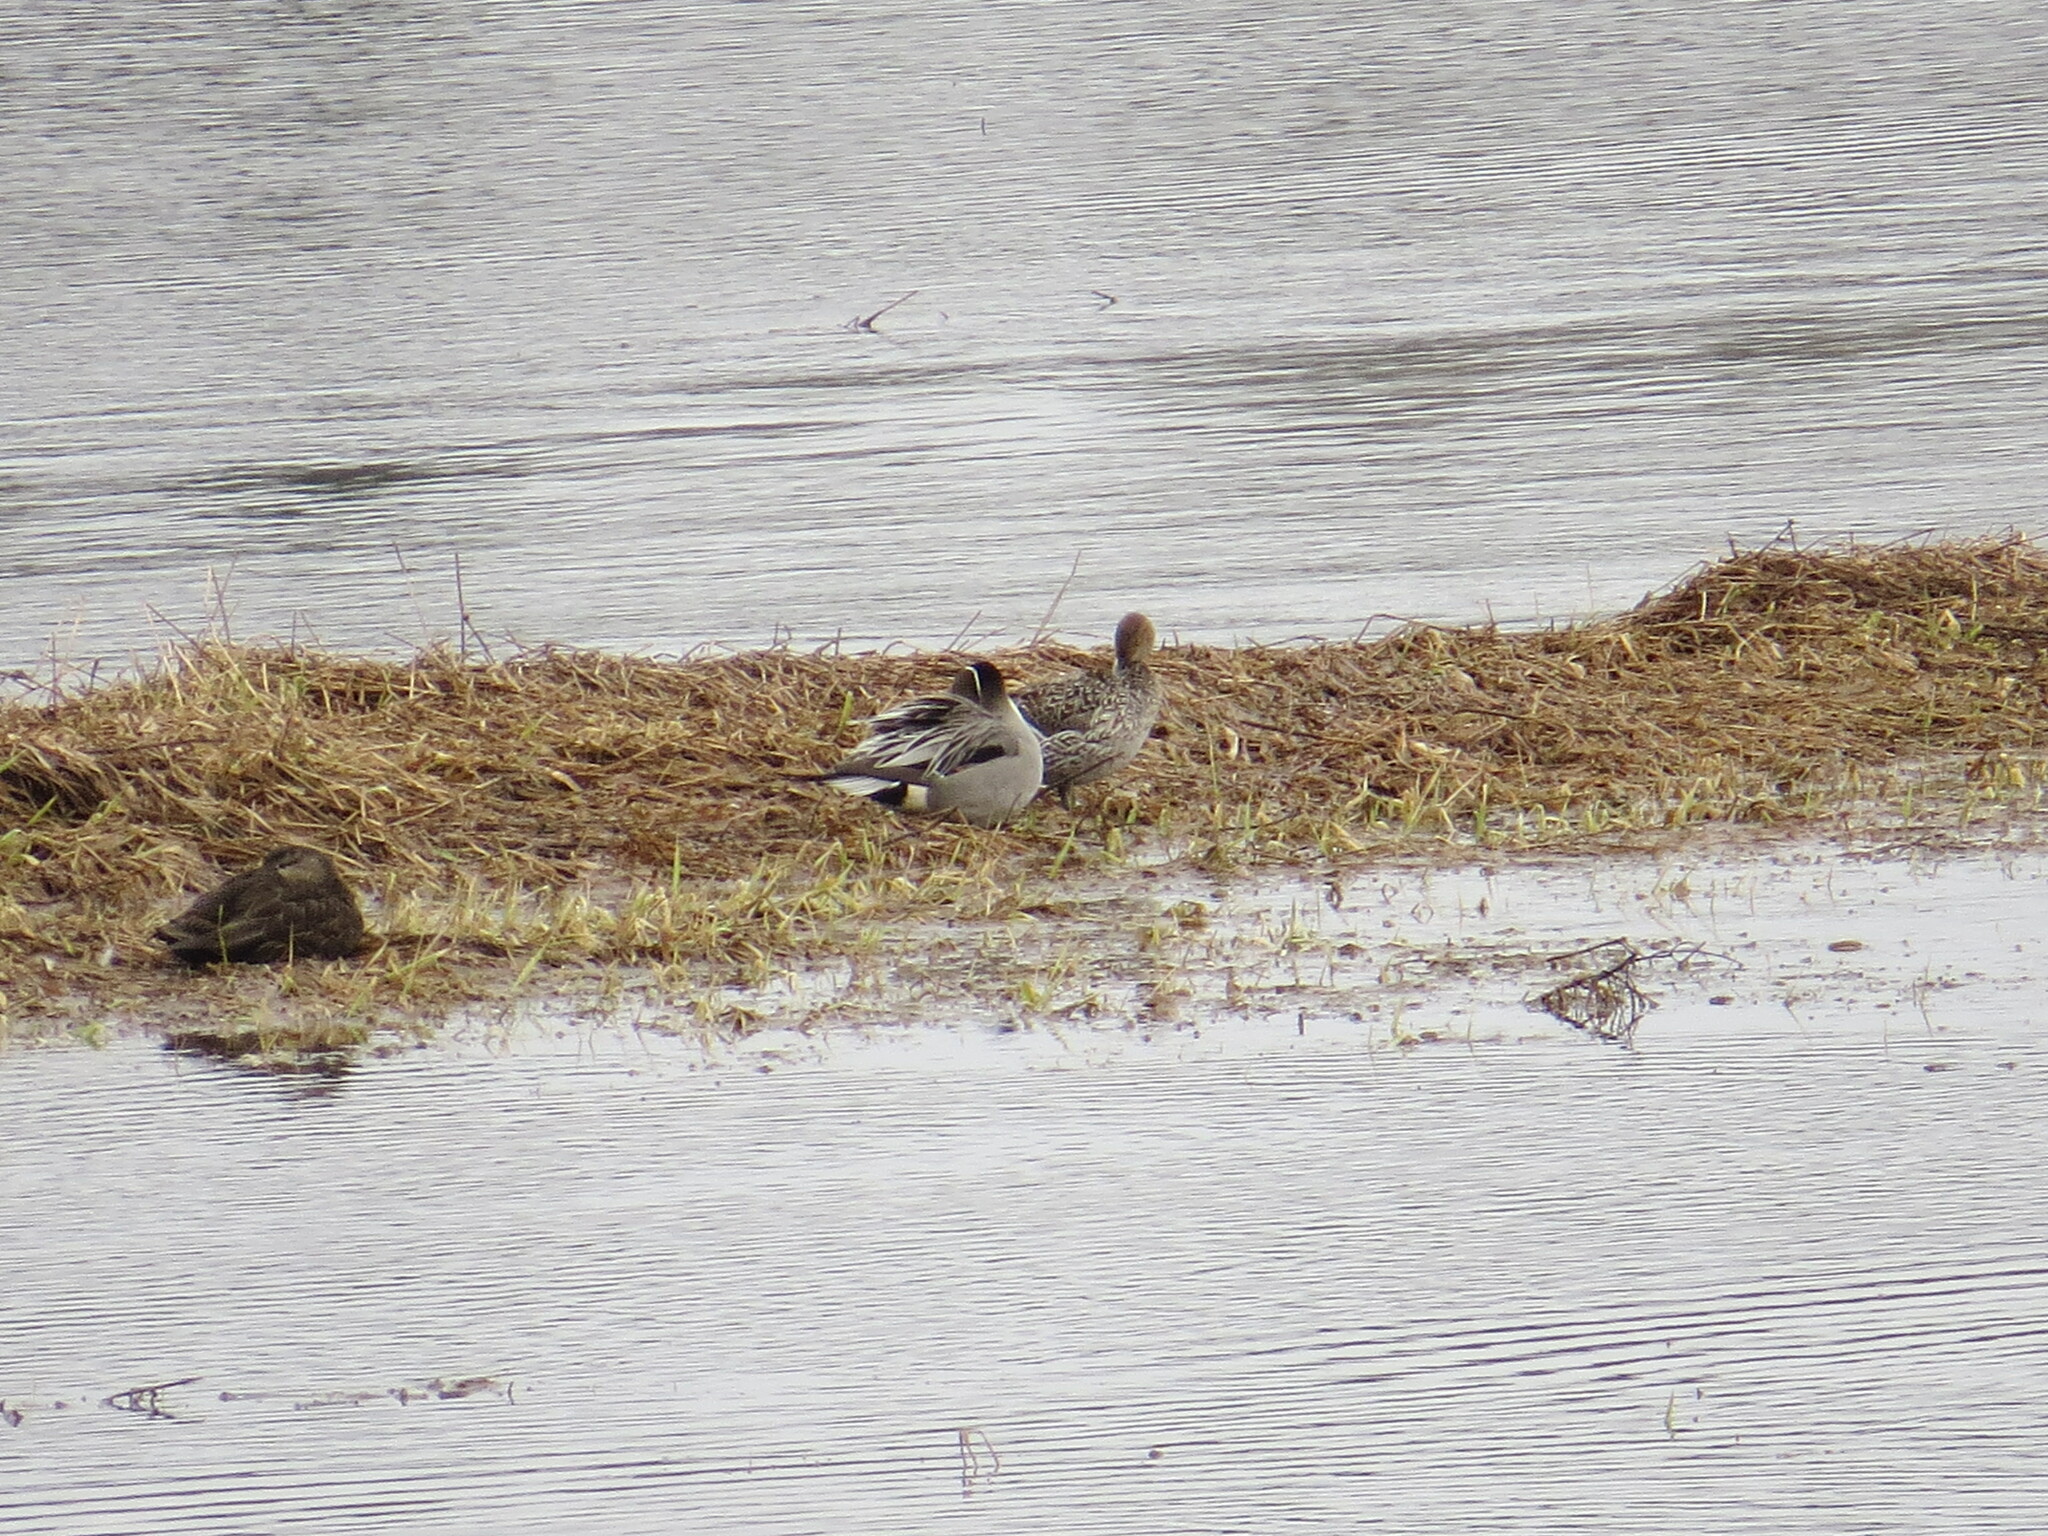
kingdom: Animalia
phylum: Chordata
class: Aves
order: Anseriformes
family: Anatidae
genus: Anas
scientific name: Anas acuta
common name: Northern pintail
